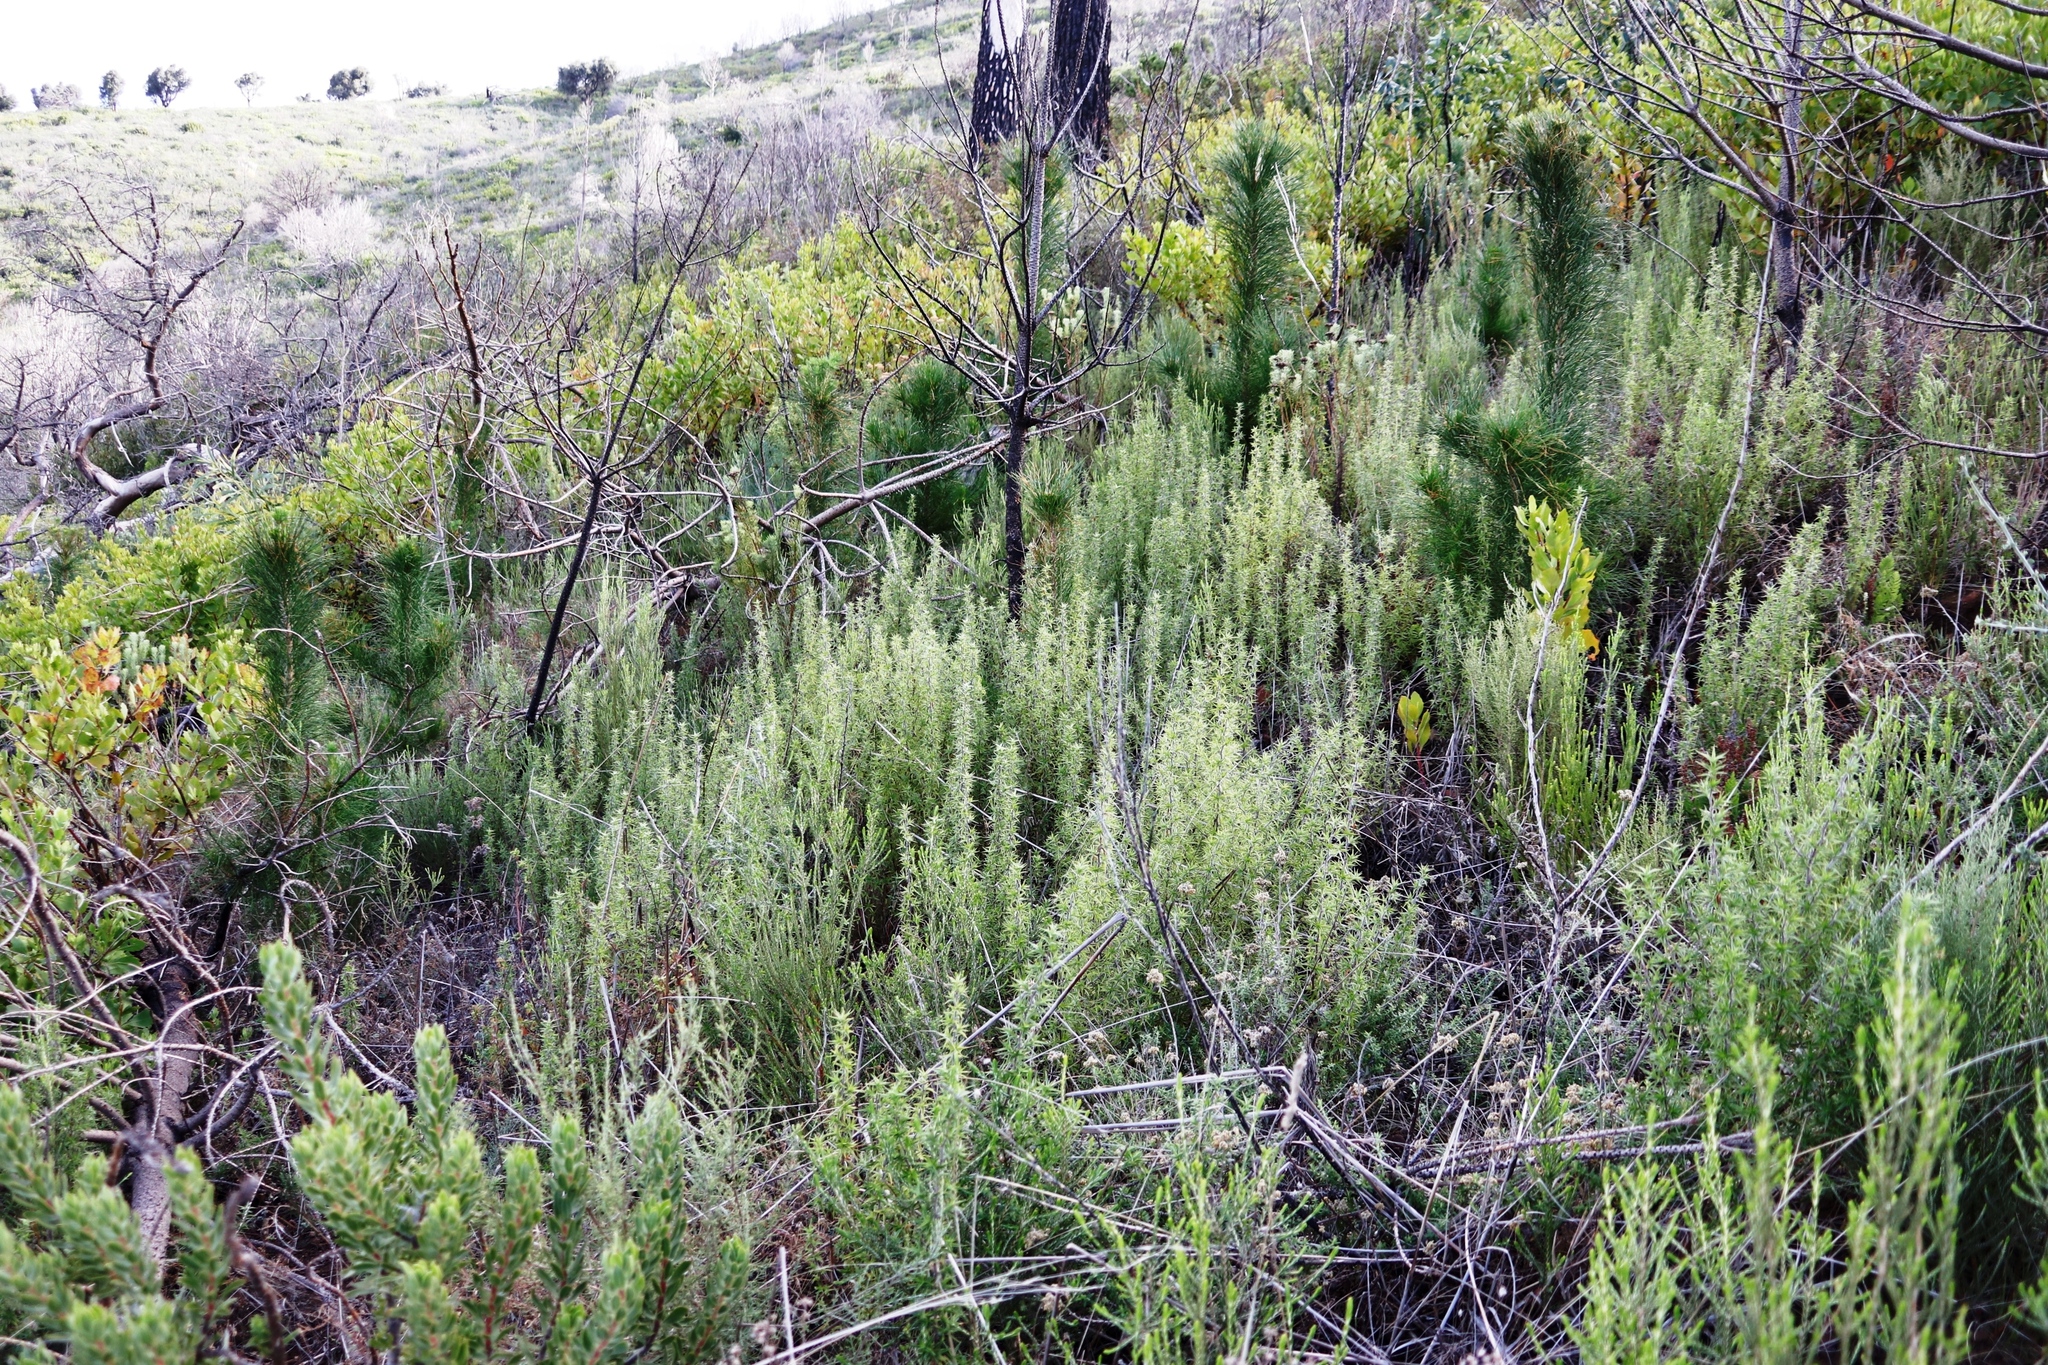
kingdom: Plantae
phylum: Tracheophyta
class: Pinopsida
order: Pinales
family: Pinaceae
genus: Pinus
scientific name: Pinus radiata
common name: Monterey pine
